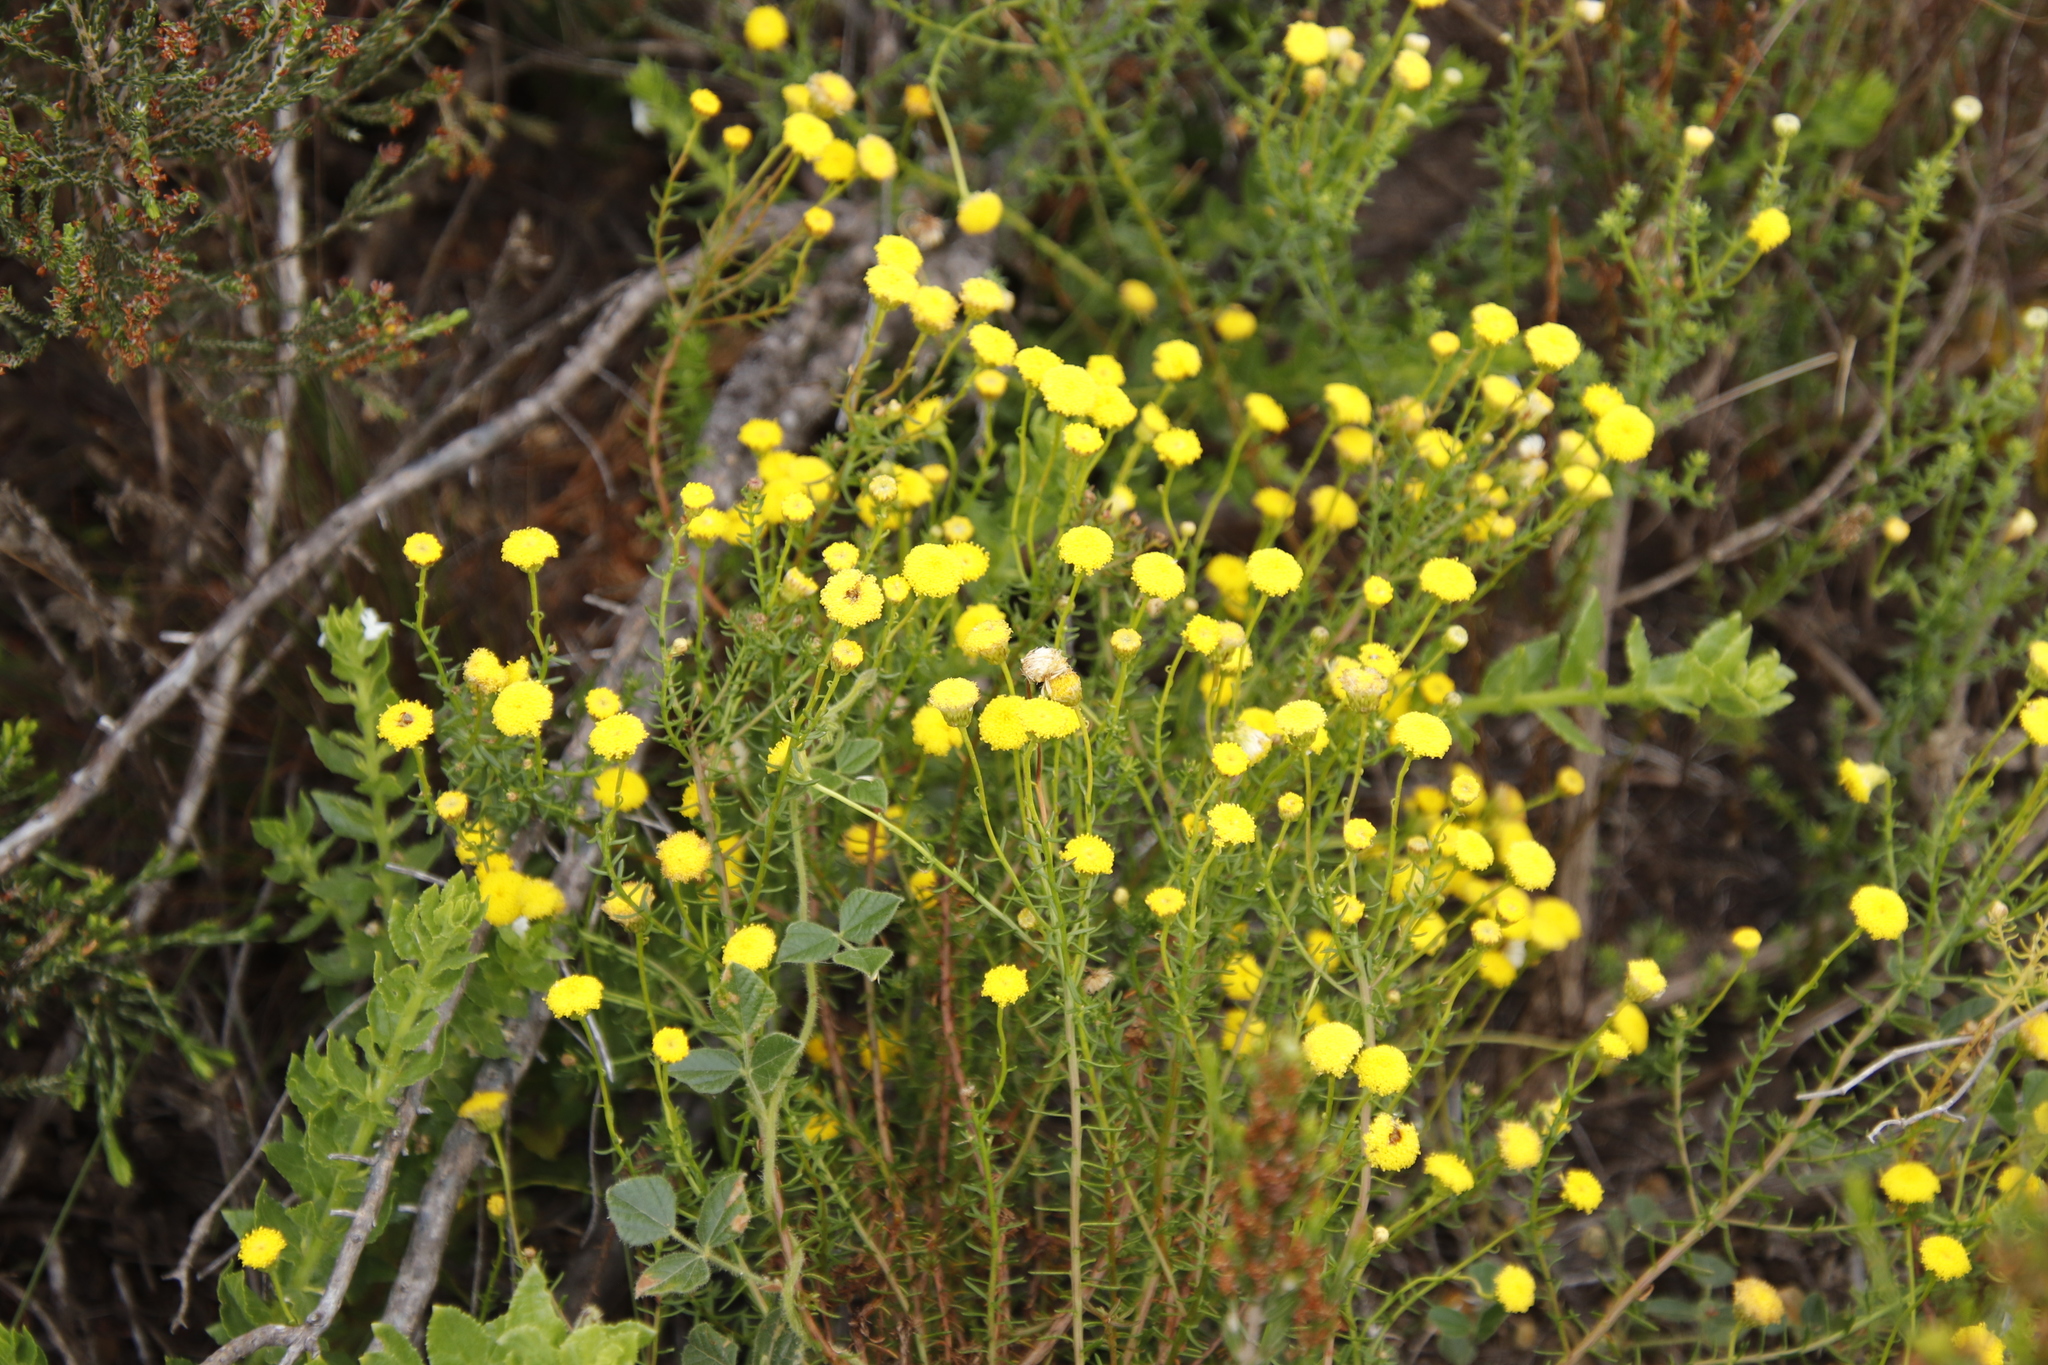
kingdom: Plantae
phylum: Tracheophyta
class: Magnoliopsida
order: Asterales
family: Asteraceae
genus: Chrysocoma
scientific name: Chrysocoma cernua
